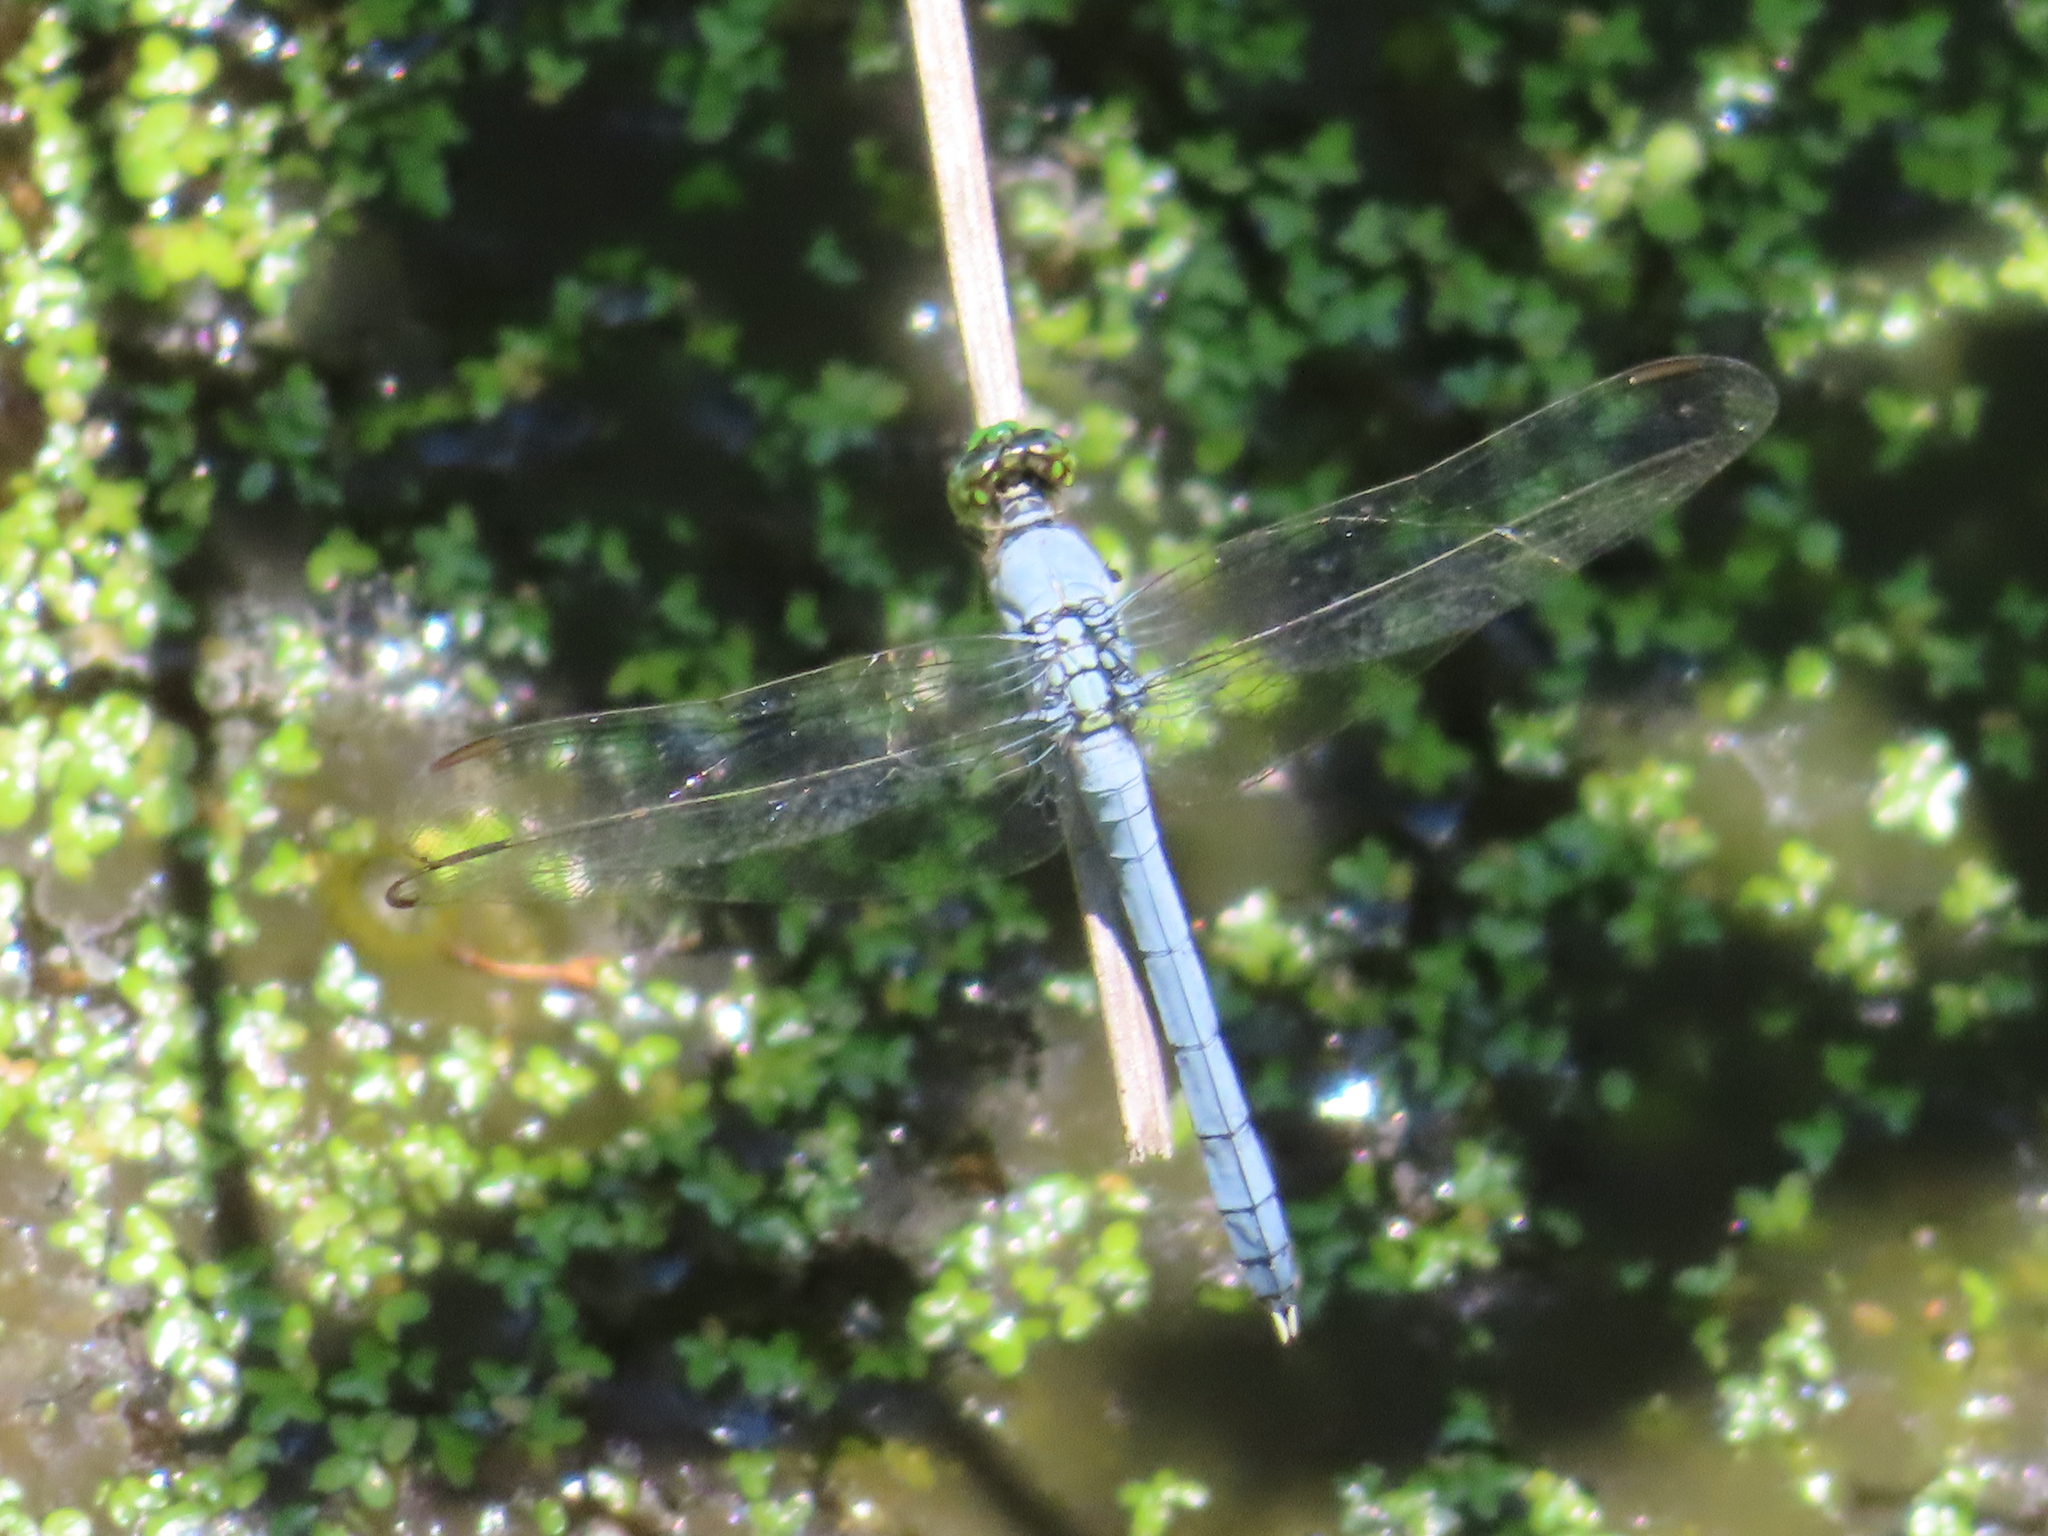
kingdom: Animalia
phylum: Arthropoda
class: Insecta
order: Odonata
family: Libellulidae
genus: Erythemis
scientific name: Erythemis simplicicollis
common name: Eastern pondhawk
